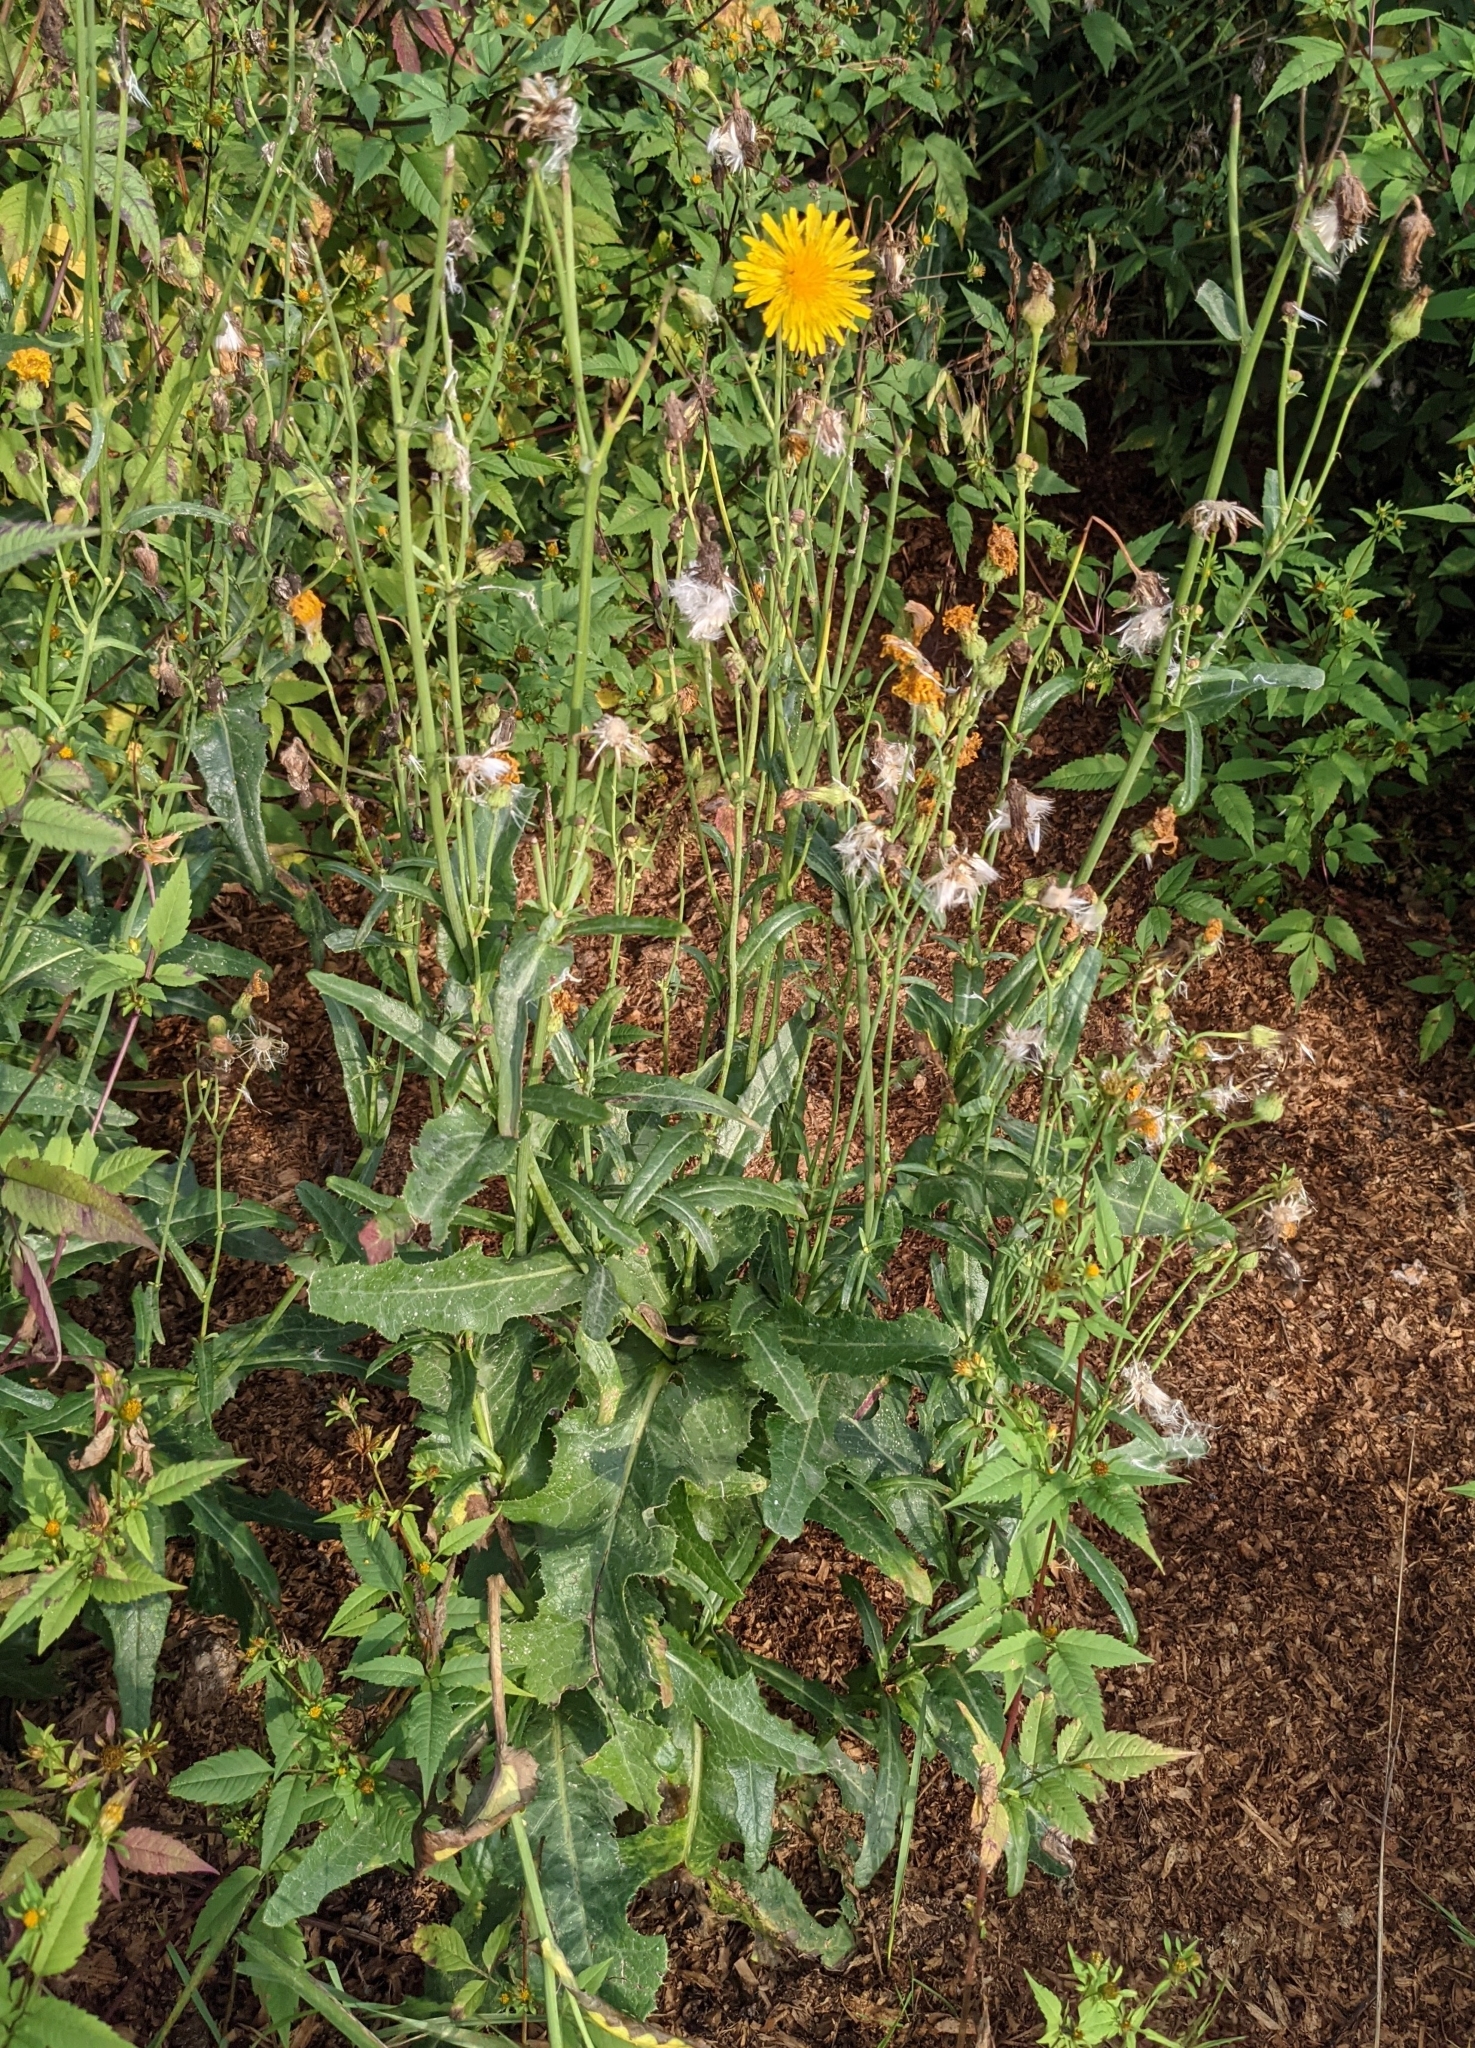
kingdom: Plantae
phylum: Tracheophyta
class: Magnoliopsida
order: Asterales
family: Asteraceae
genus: Sonchus
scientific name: Sonchus arvensis
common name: Perennial sow-thistle
